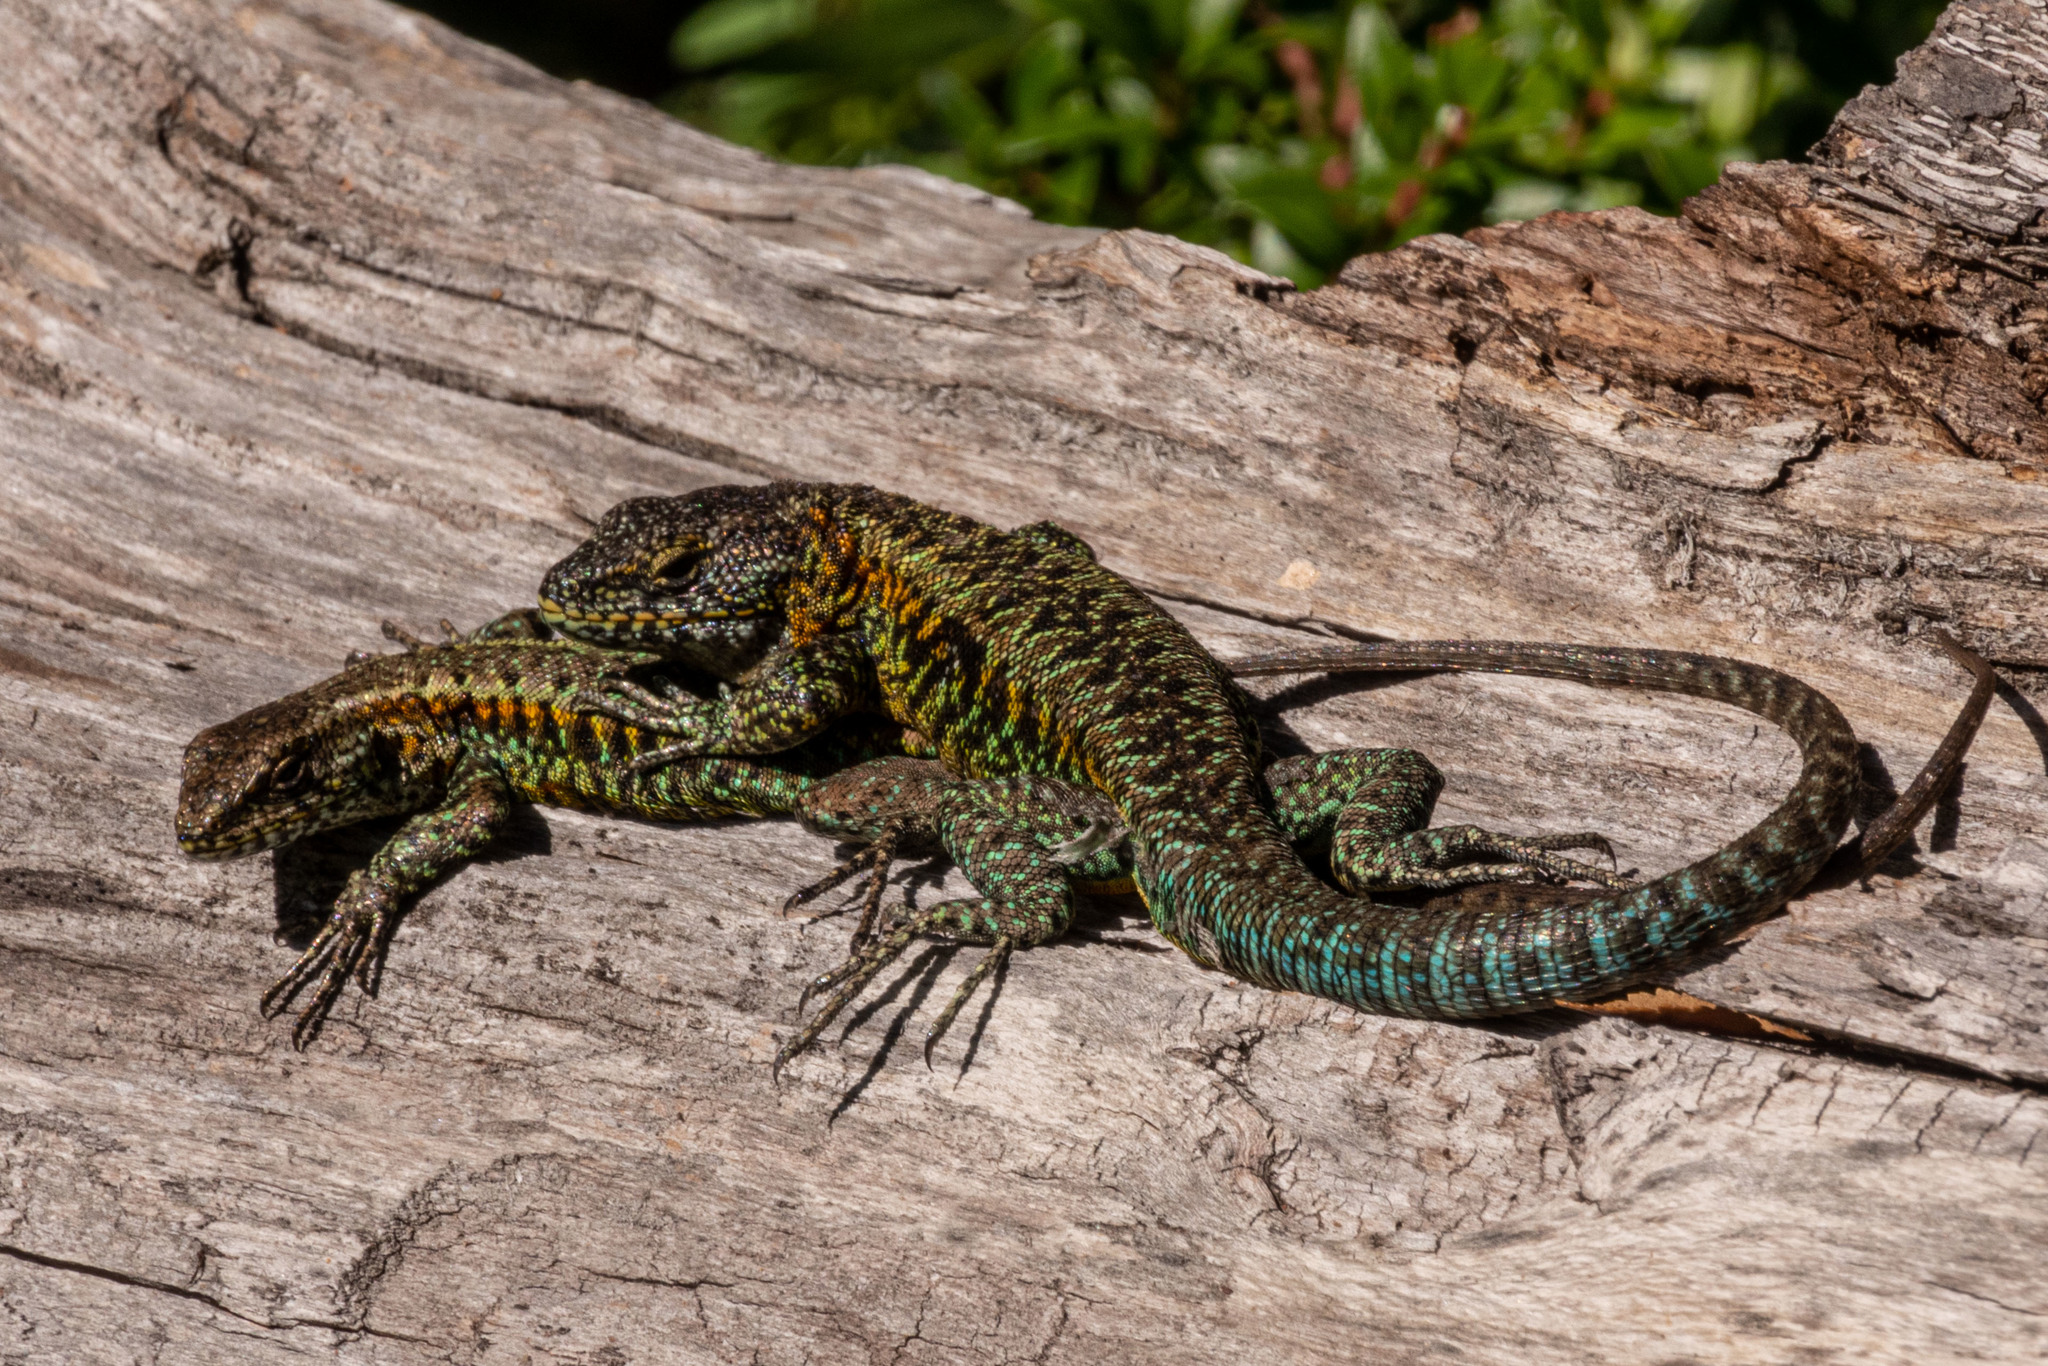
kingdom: Animalia
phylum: Chordata
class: Squamata
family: Liolaemidae
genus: Liolaemus
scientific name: Liolaemus pictus
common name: Painted tree iguana
